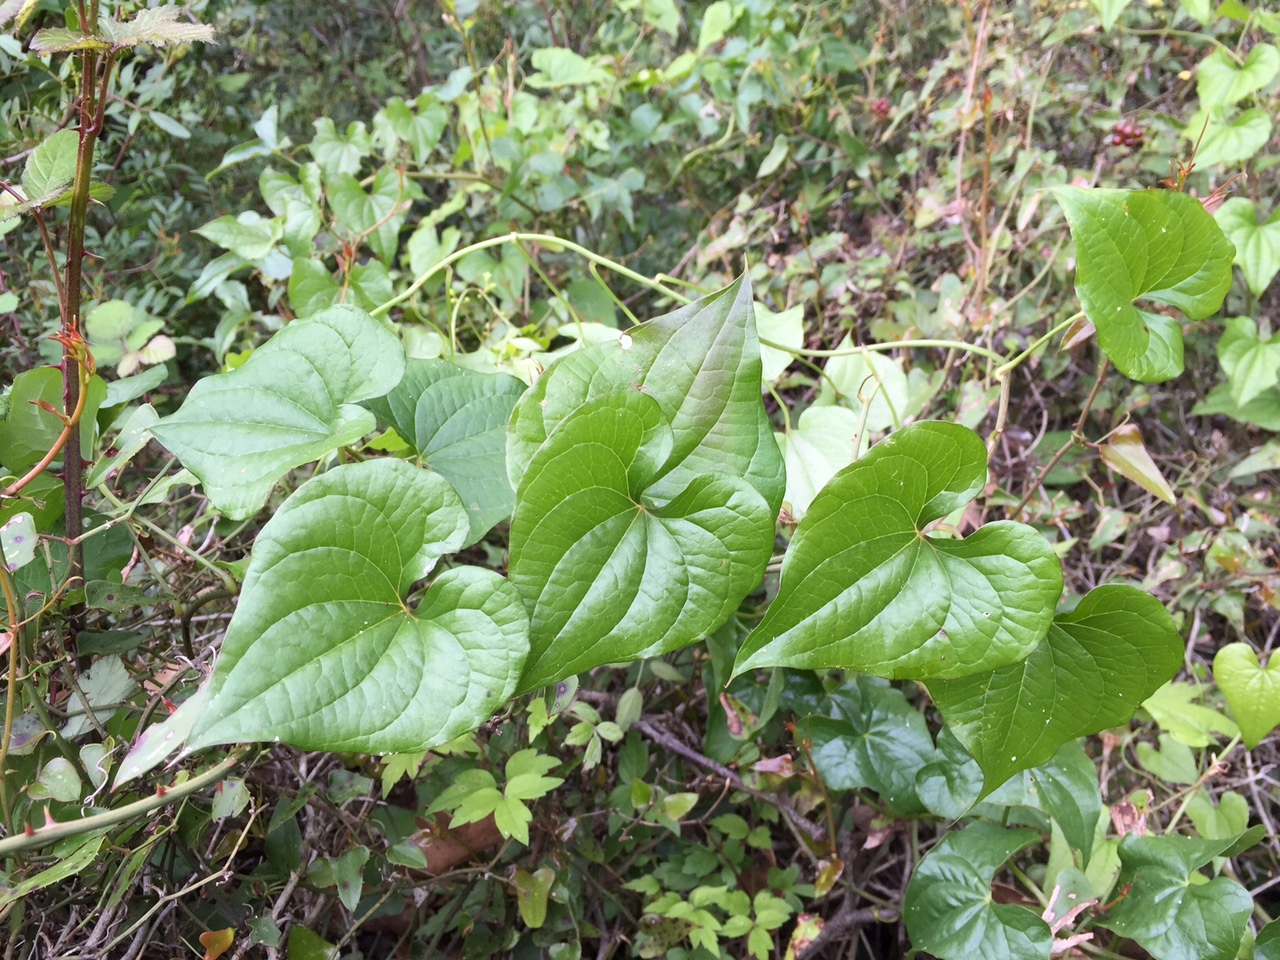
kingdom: Plantae
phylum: Tracheophyta
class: Liliopsida
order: Dioscoreales
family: Dioscoreaceae
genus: Dioscorea
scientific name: Dioscorea communis
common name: Black-bindweed
